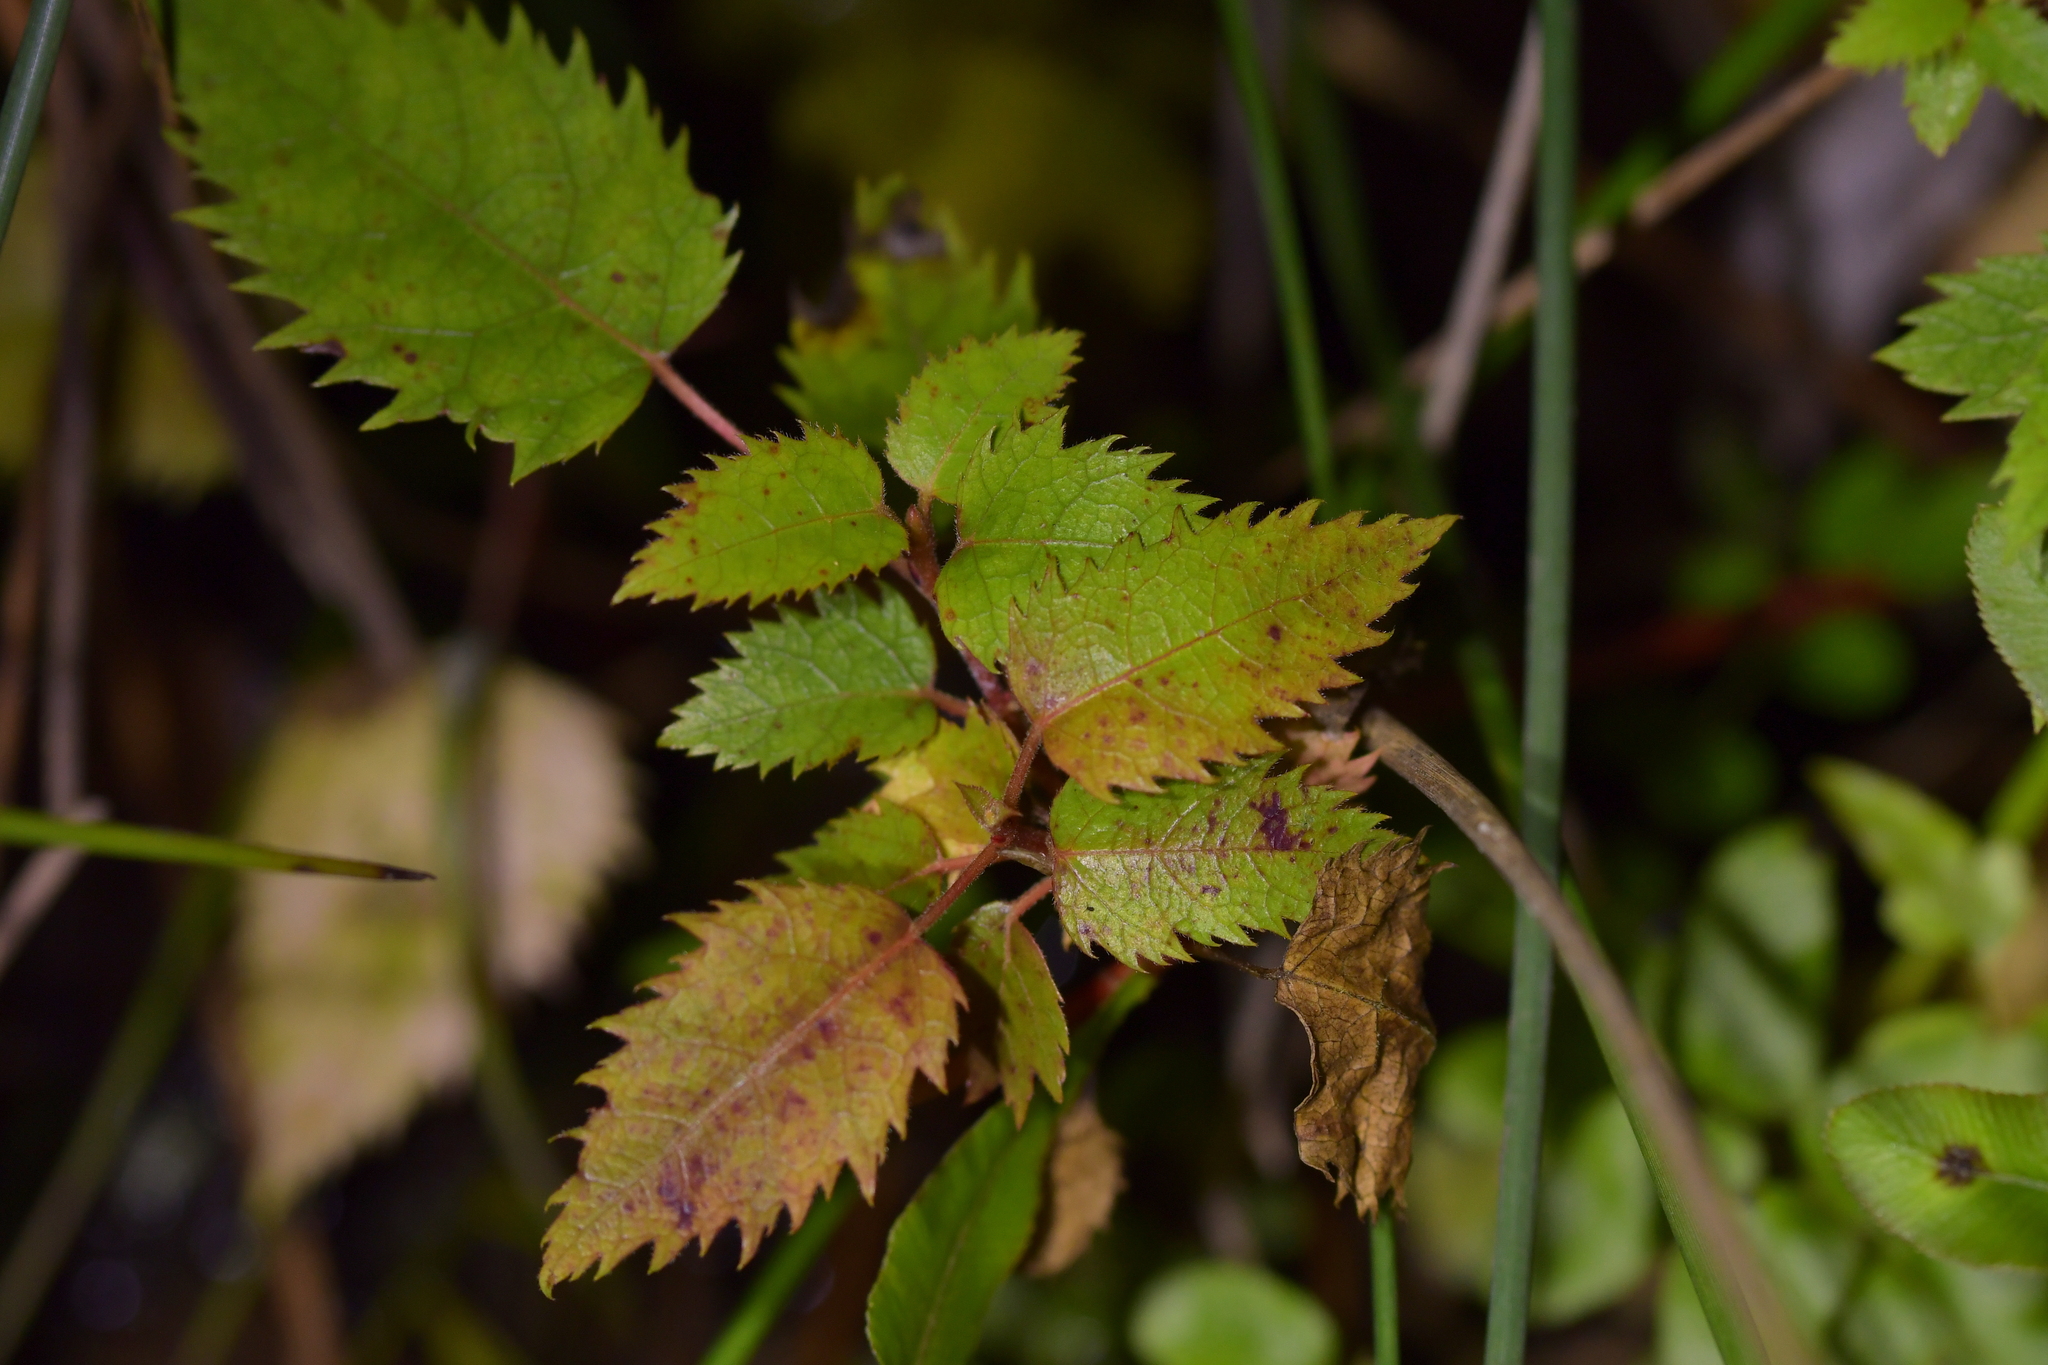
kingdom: Plantae
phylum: Tracheophyta
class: Magnoliopsida
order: Oxalidales
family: Elaeocarpaceae
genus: Aristotelia
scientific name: Aristotelia serrata
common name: New zealand wineberry
